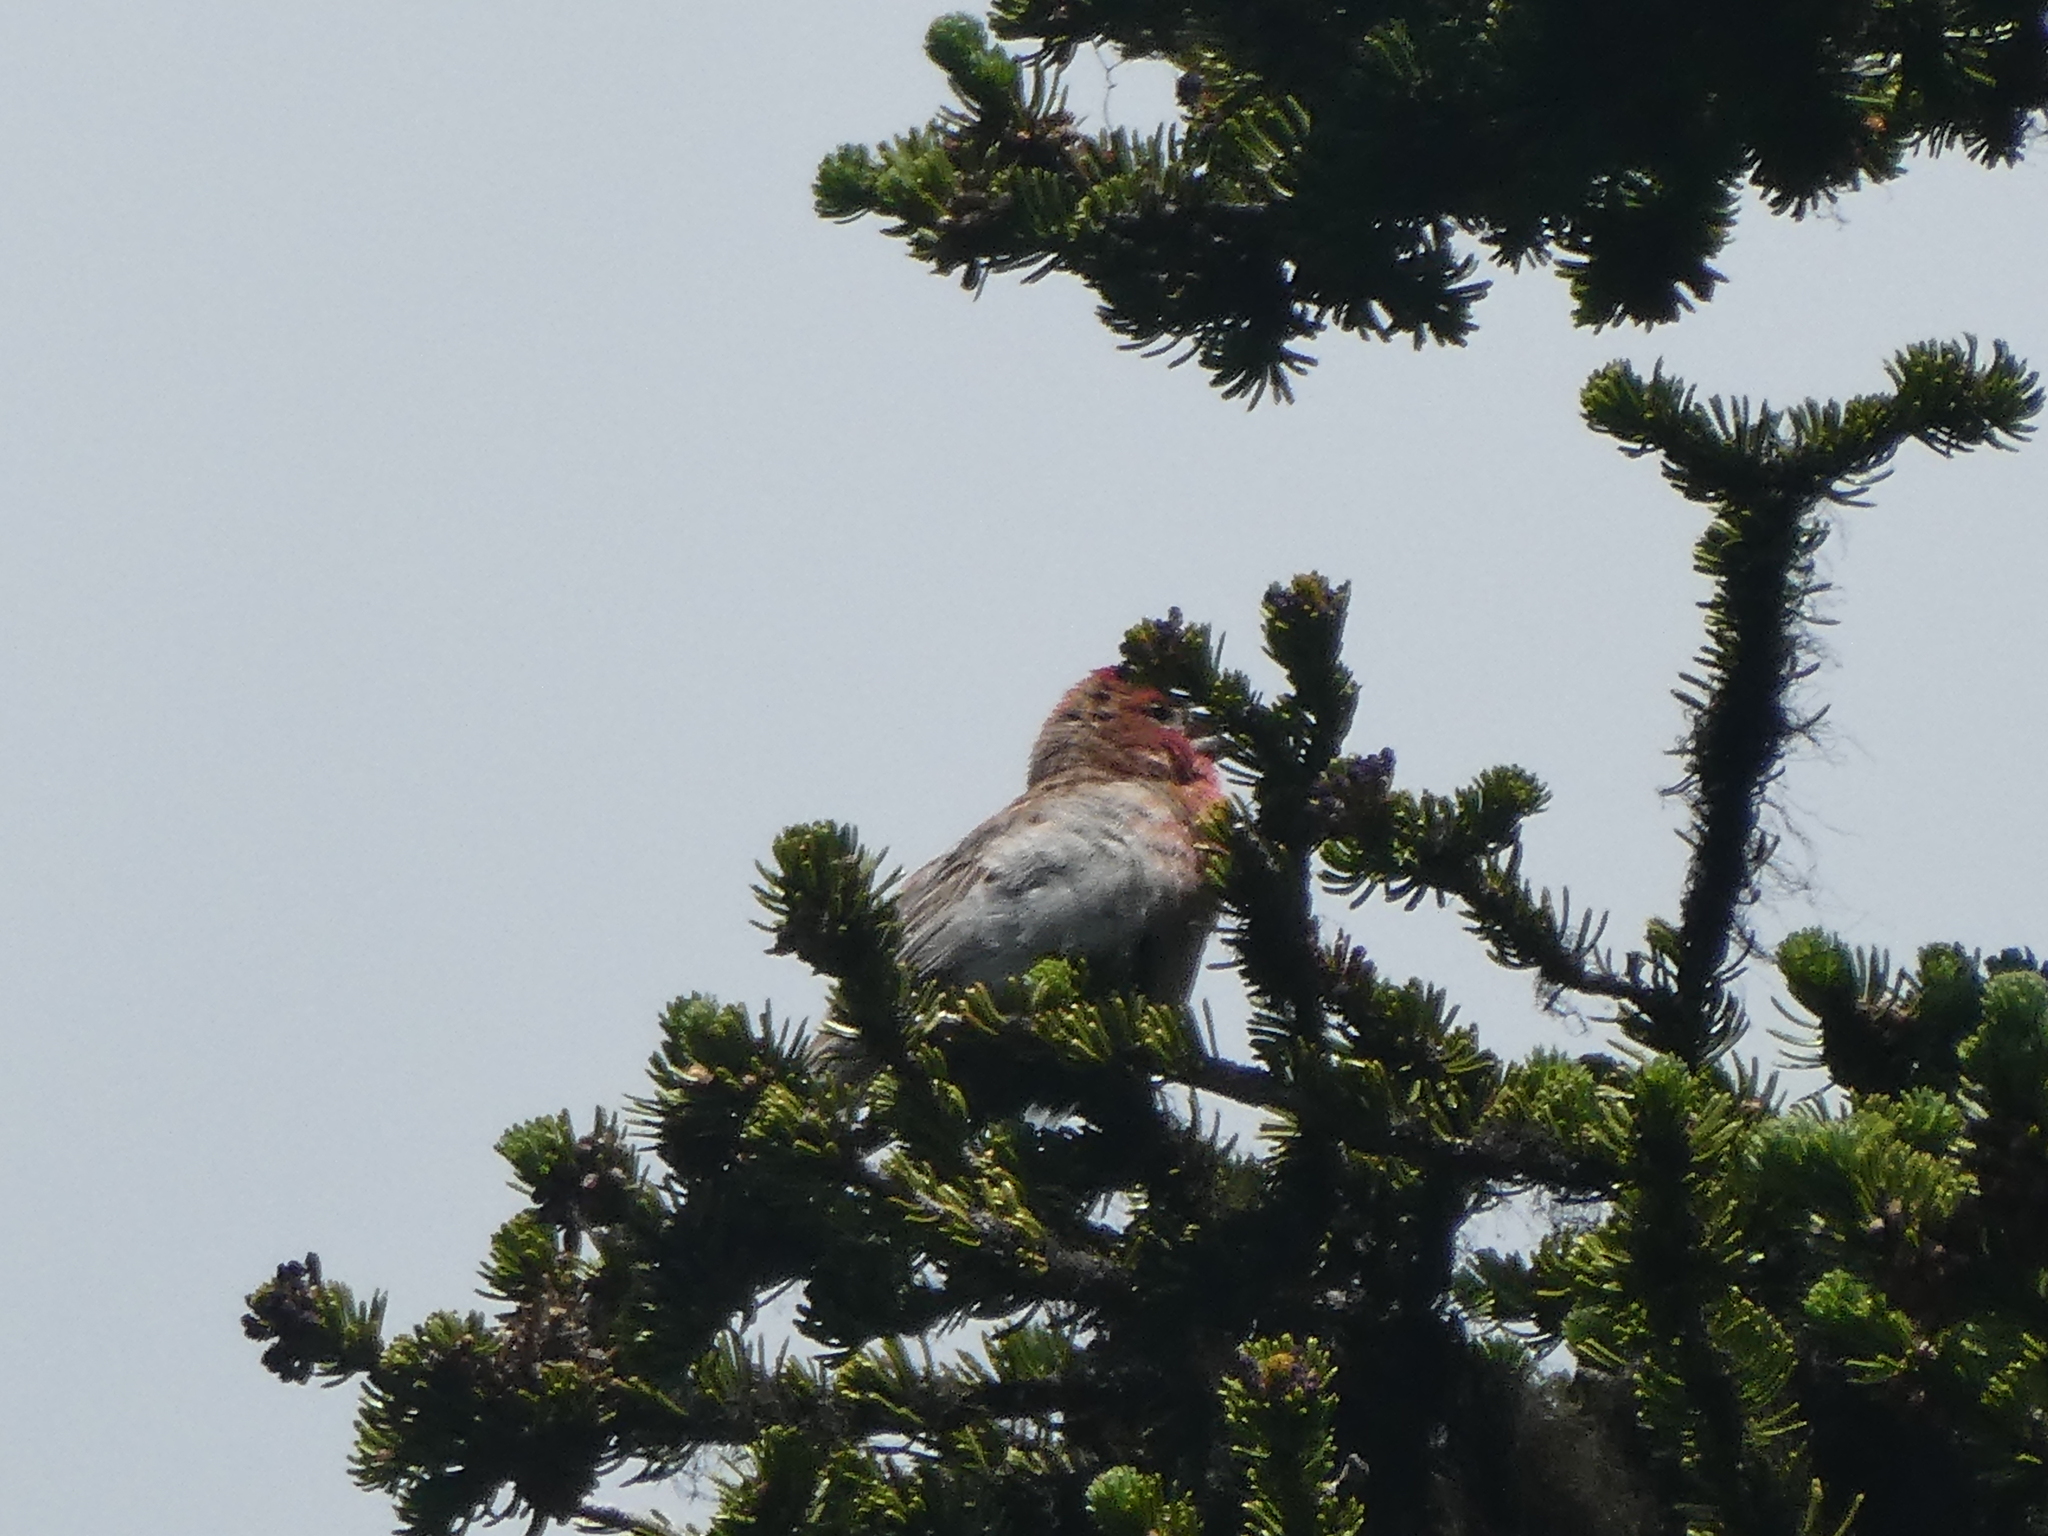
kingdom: Animalia
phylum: Chordata
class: Aves
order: Passeriformes
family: Fringillidae
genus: Haemorhous
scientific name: Haemorhous cassinii
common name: Cassin's finch
